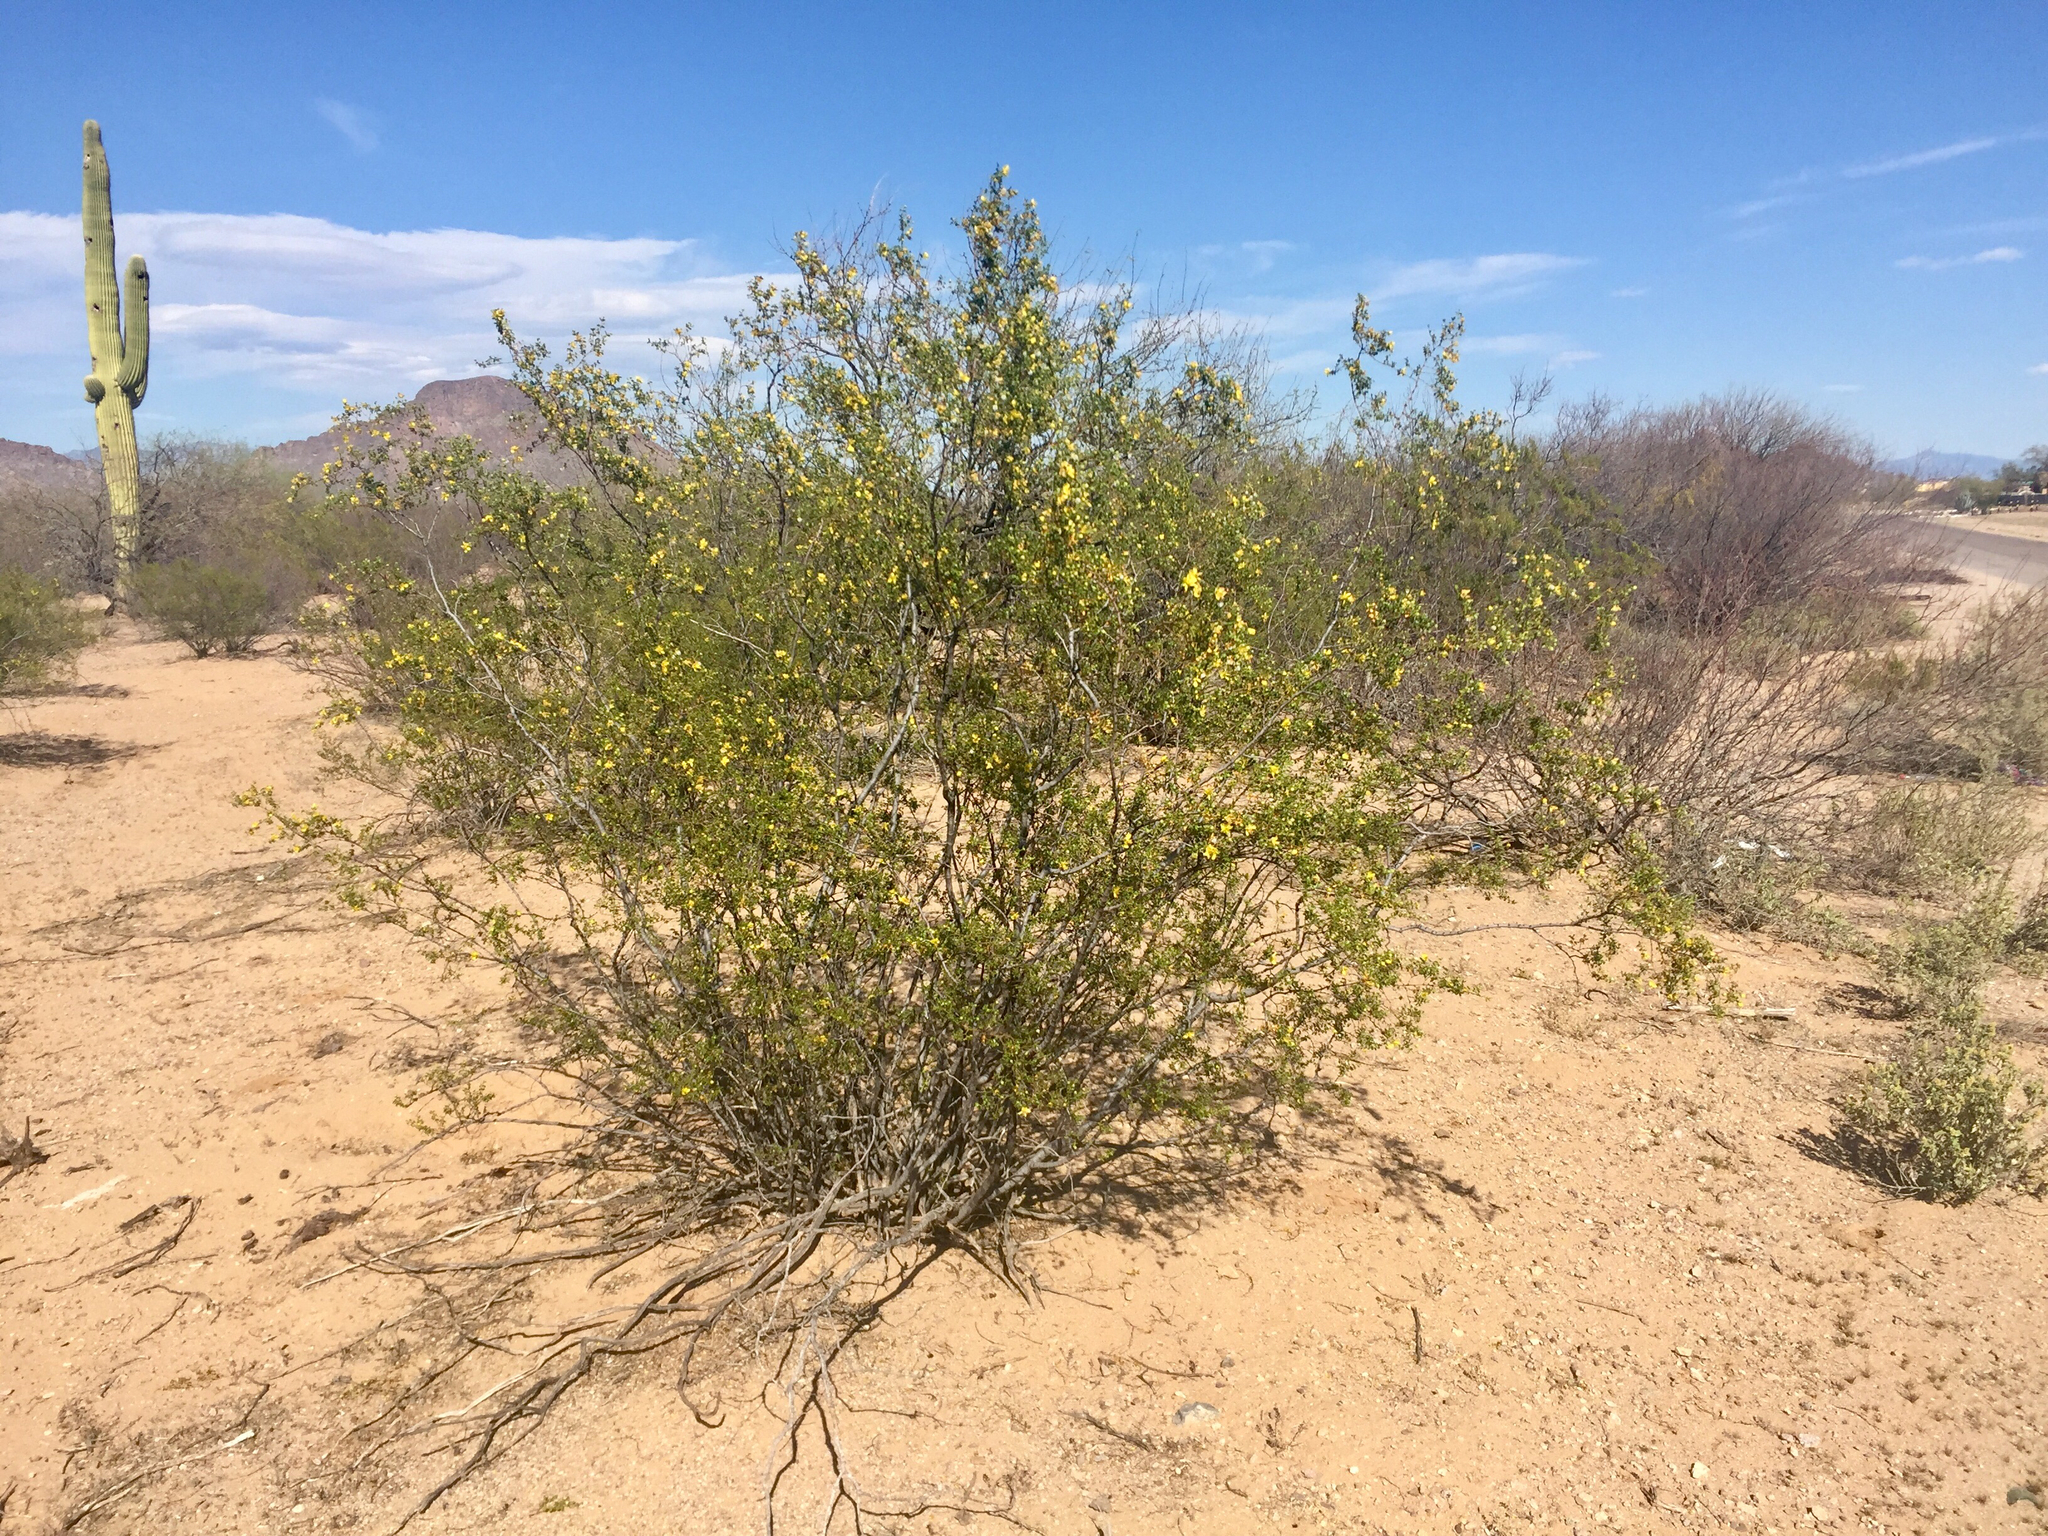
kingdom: Plantae
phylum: Tracheophyta
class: Magnoliopsida
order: Zygophyllales
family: Zygophyllaceae
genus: Larrea
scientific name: Larrea tridentata
